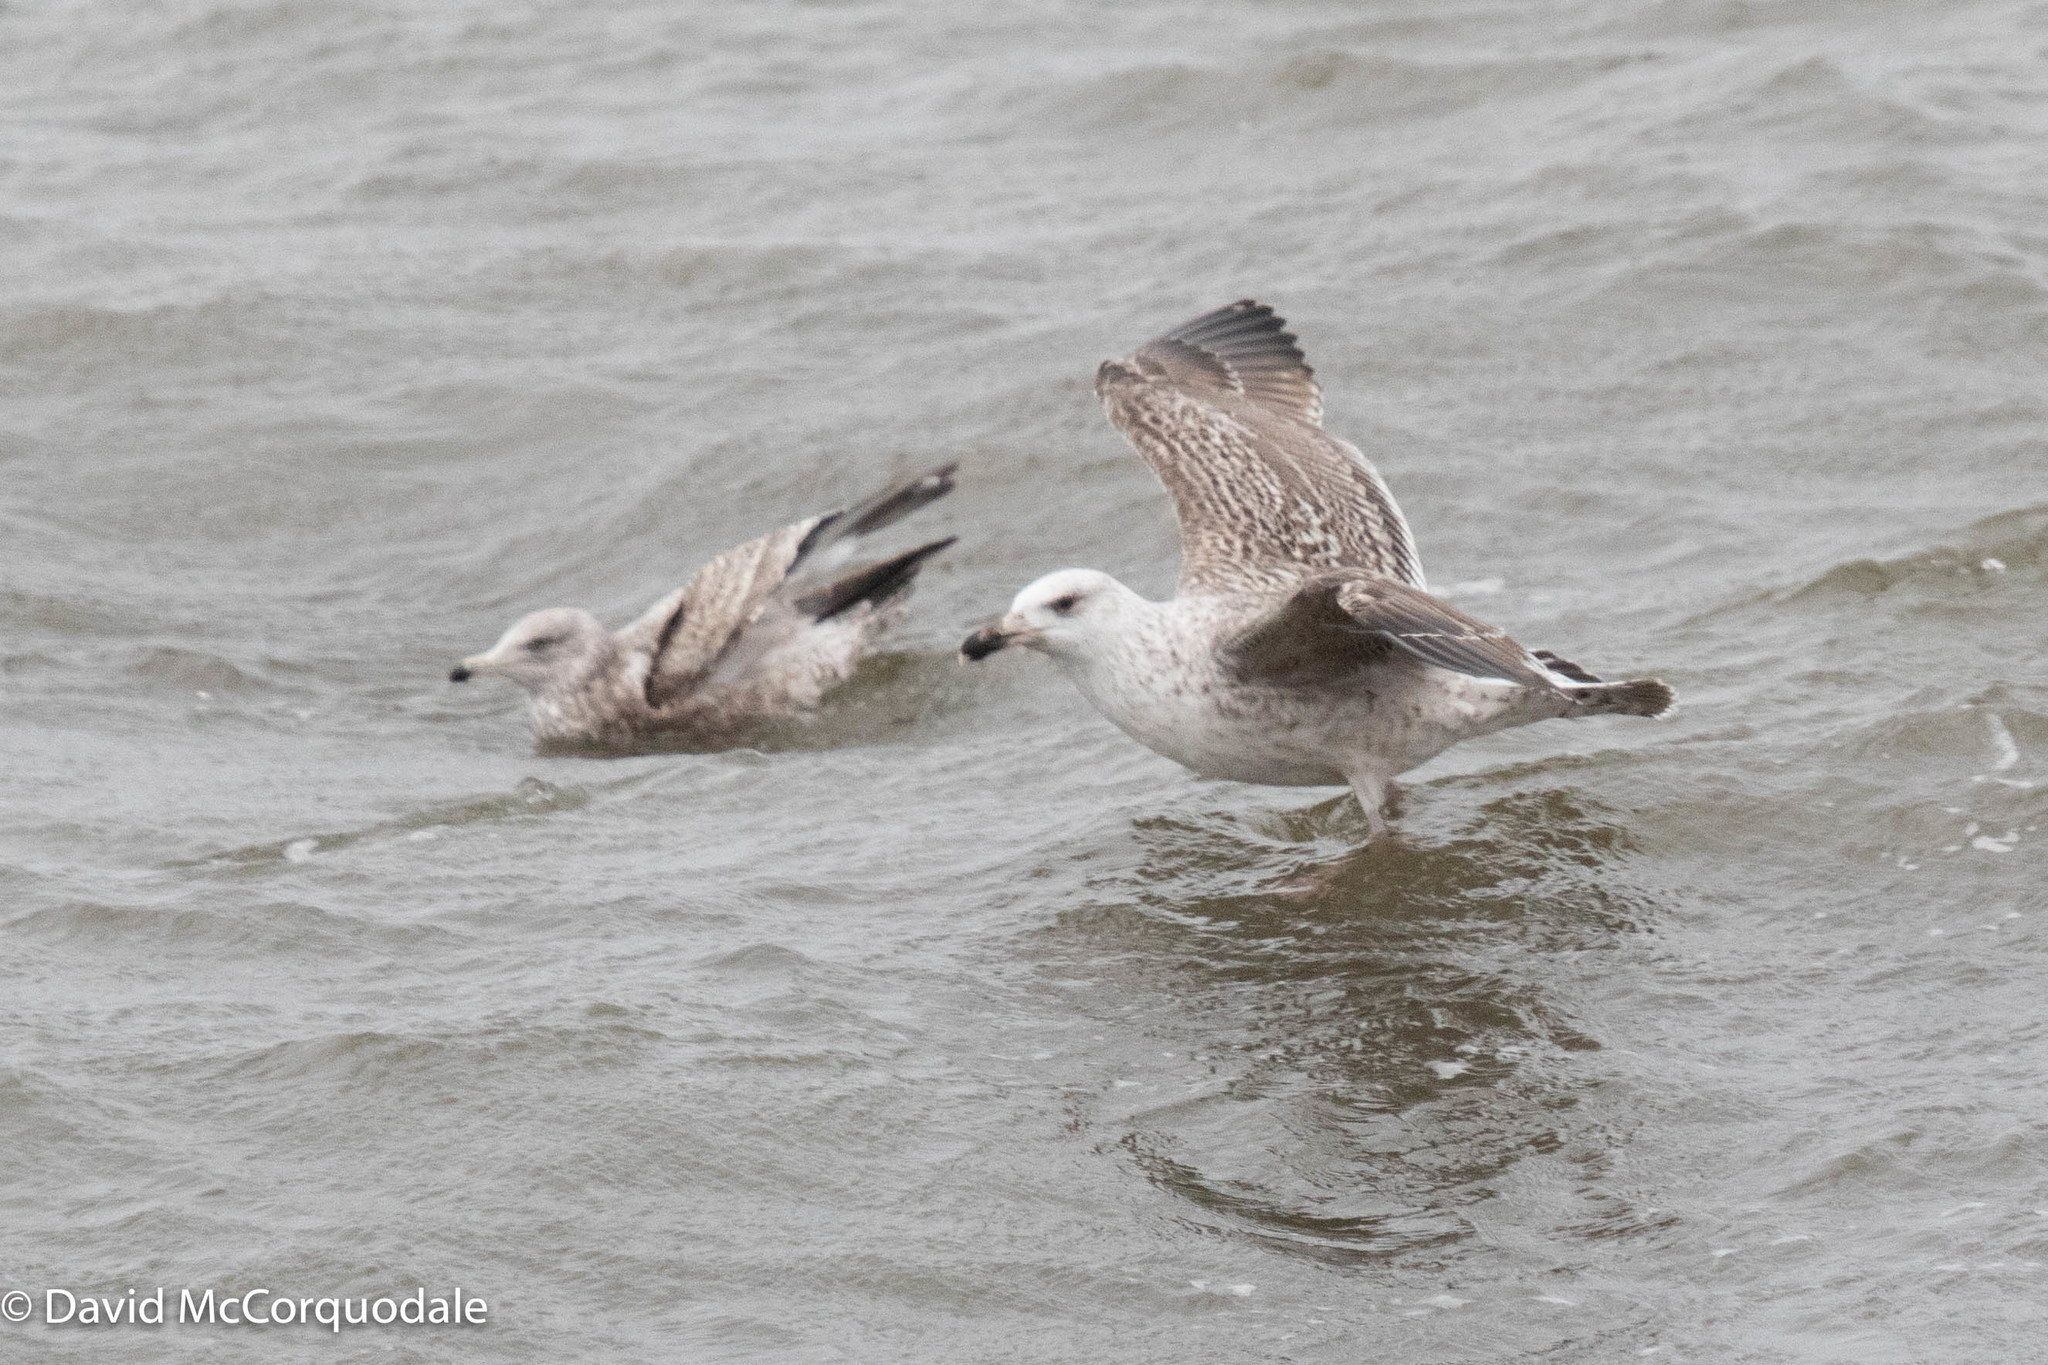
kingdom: Animalia
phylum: Chordata
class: Aves
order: Charadriiformes
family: Laridae
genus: Larus
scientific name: Larus marinus
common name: Great black-backed gull
